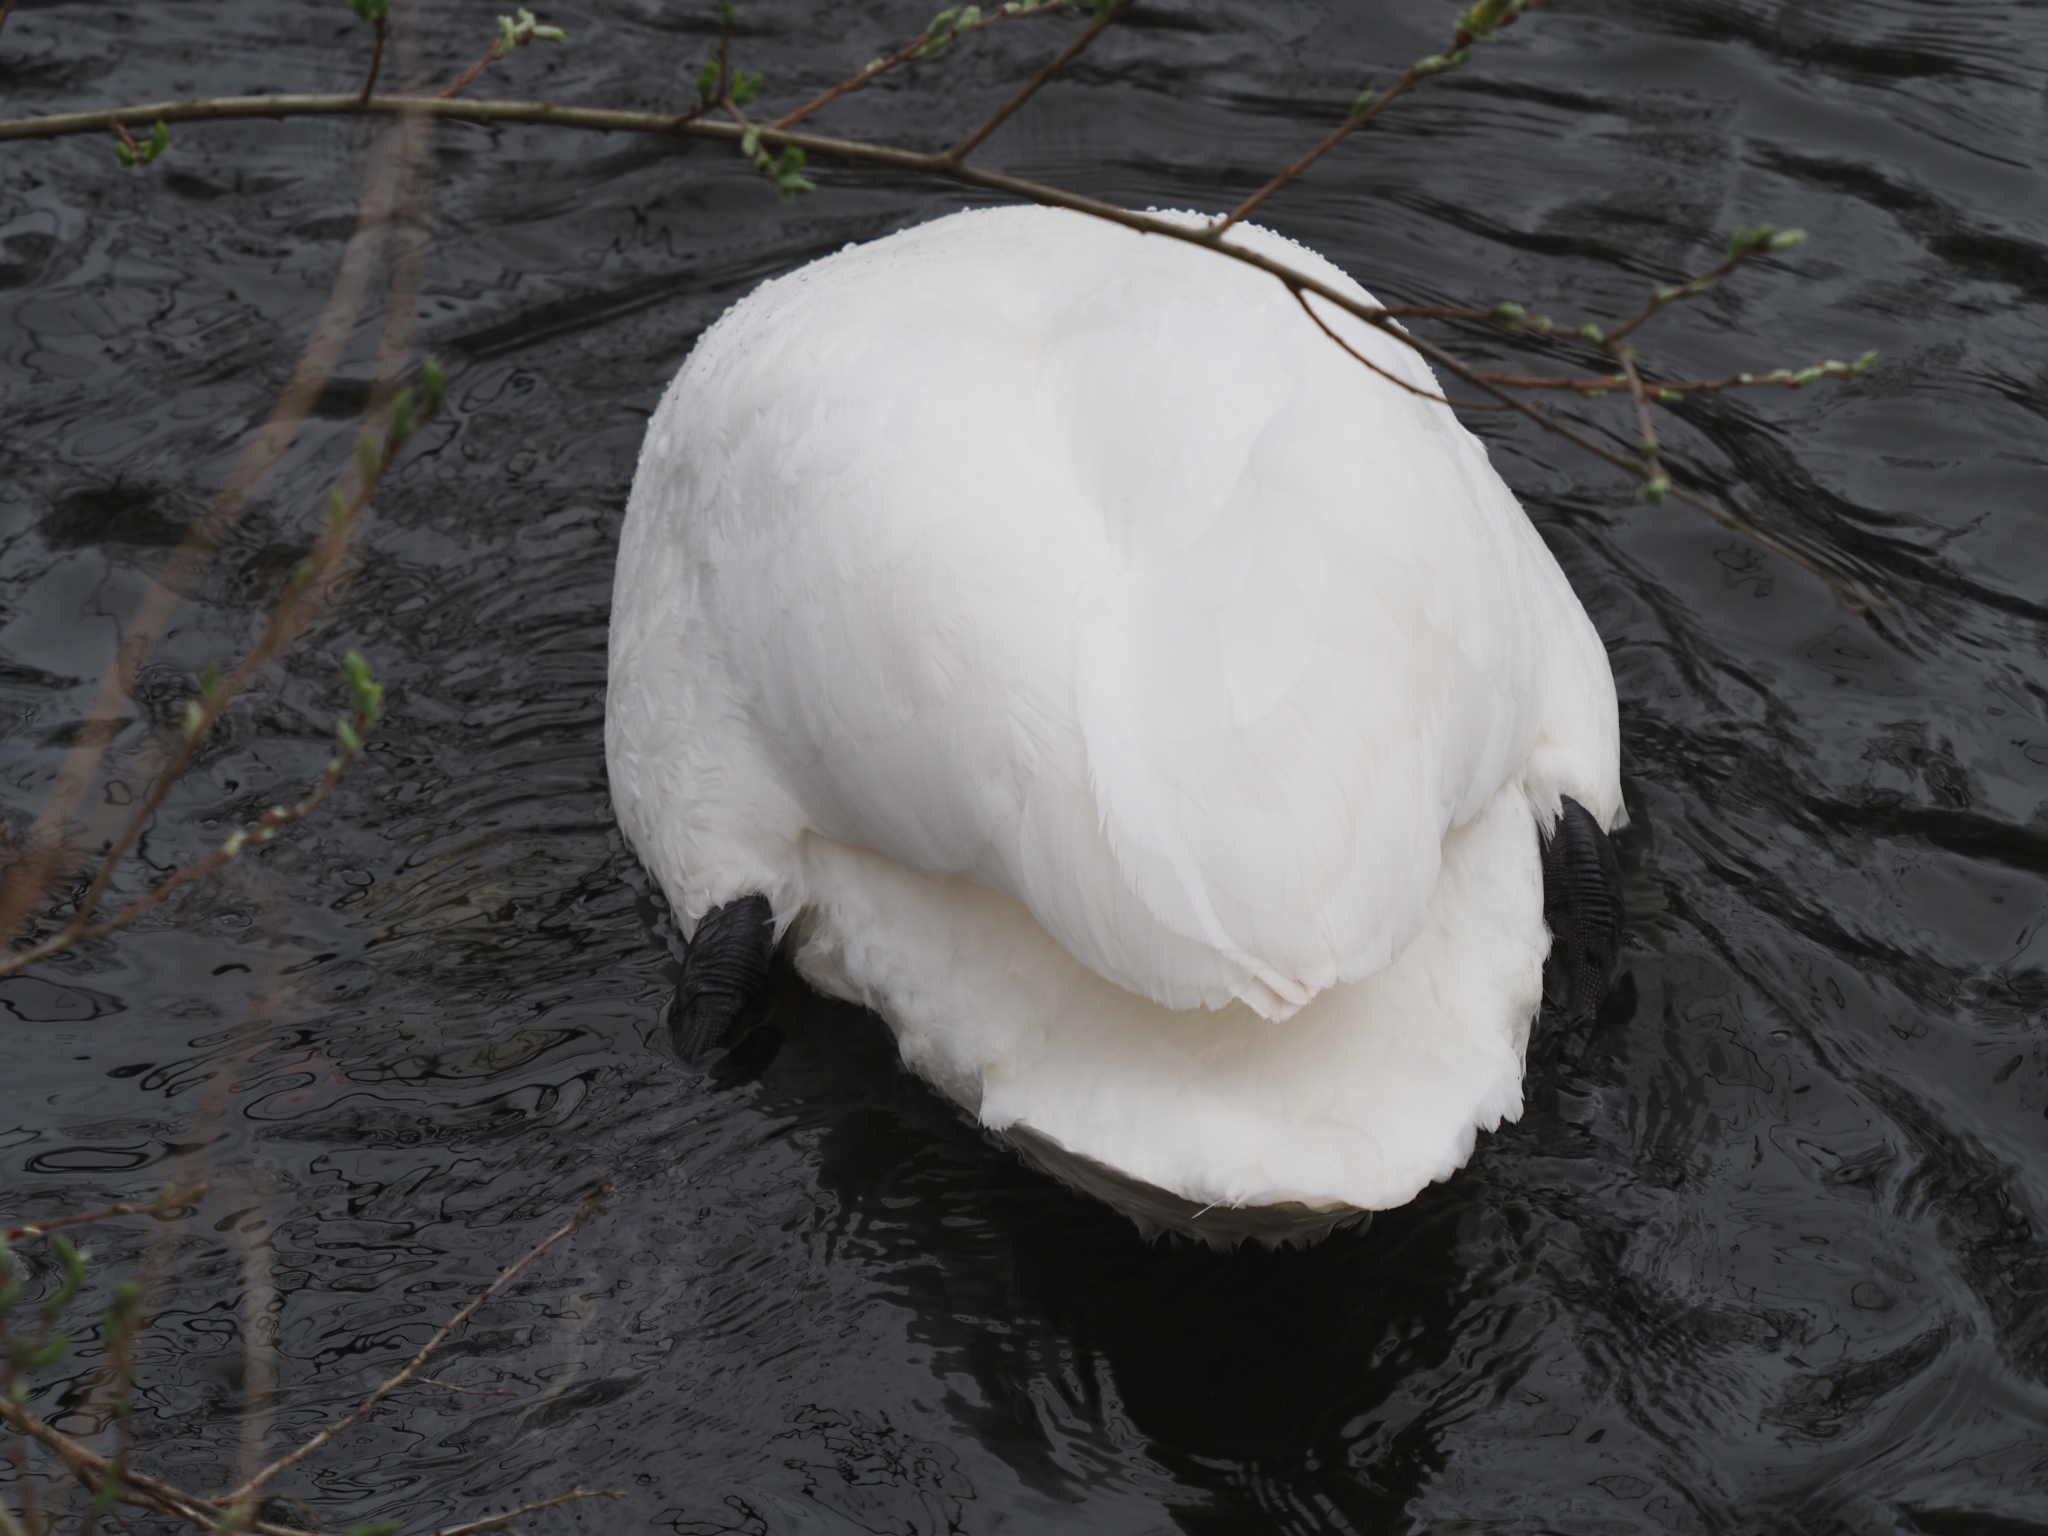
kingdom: Animalia
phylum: Chordata
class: Aves
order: Anseriformes
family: Anatidae
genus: Cygnus
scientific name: Cygnus olor
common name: Mute swan
